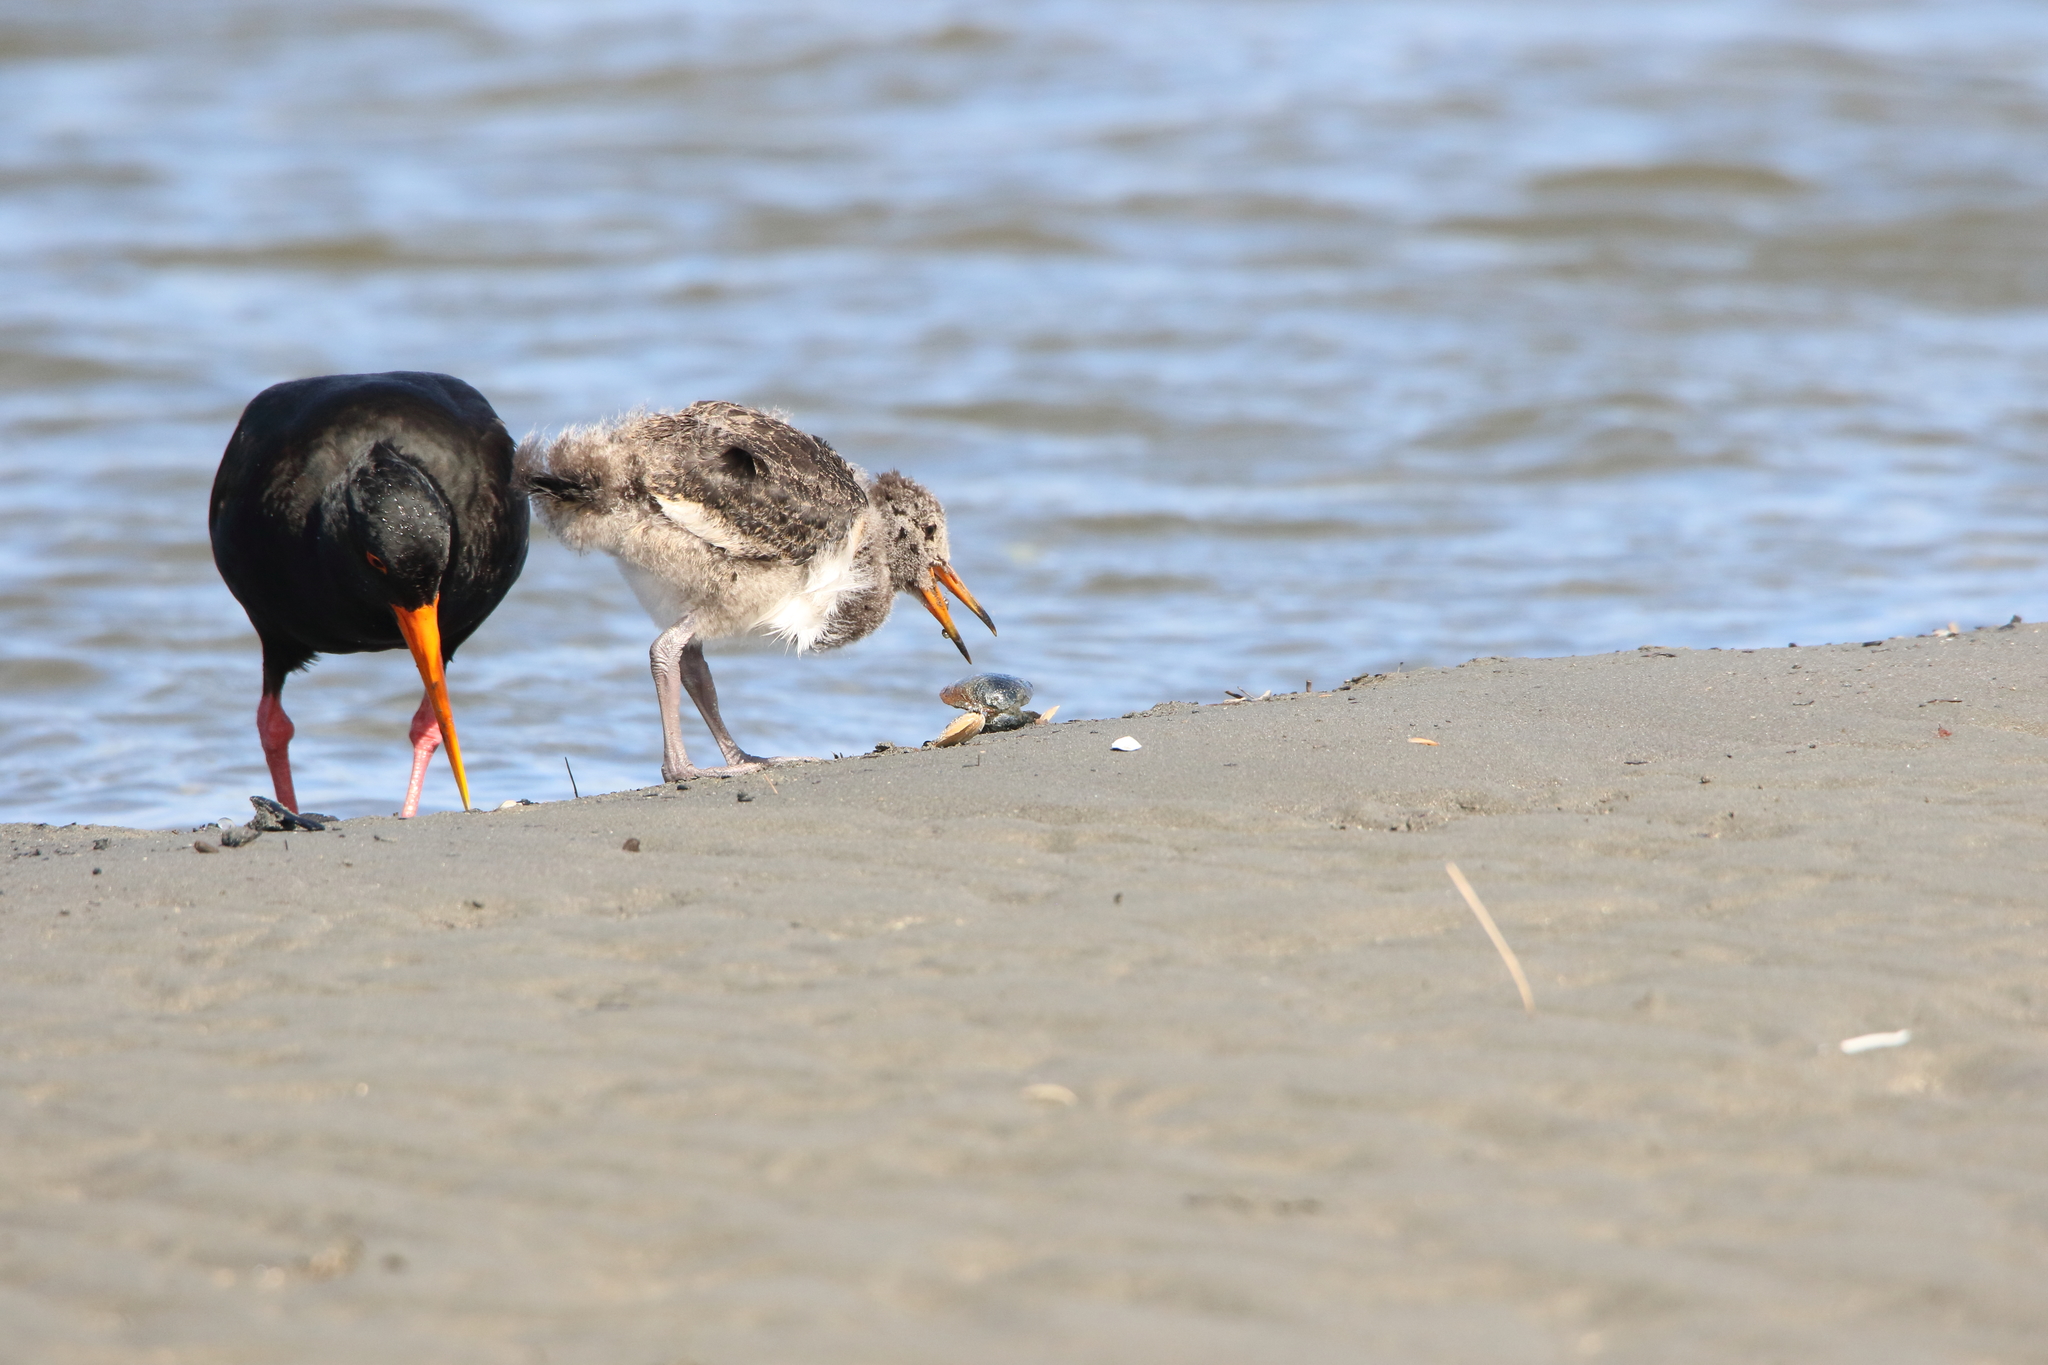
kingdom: Animalia
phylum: Chordata
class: Aves
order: Charadriiformes
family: Haematopodidae
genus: Haematopus
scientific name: Haematopus unicolor
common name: Variable oystercatcher
